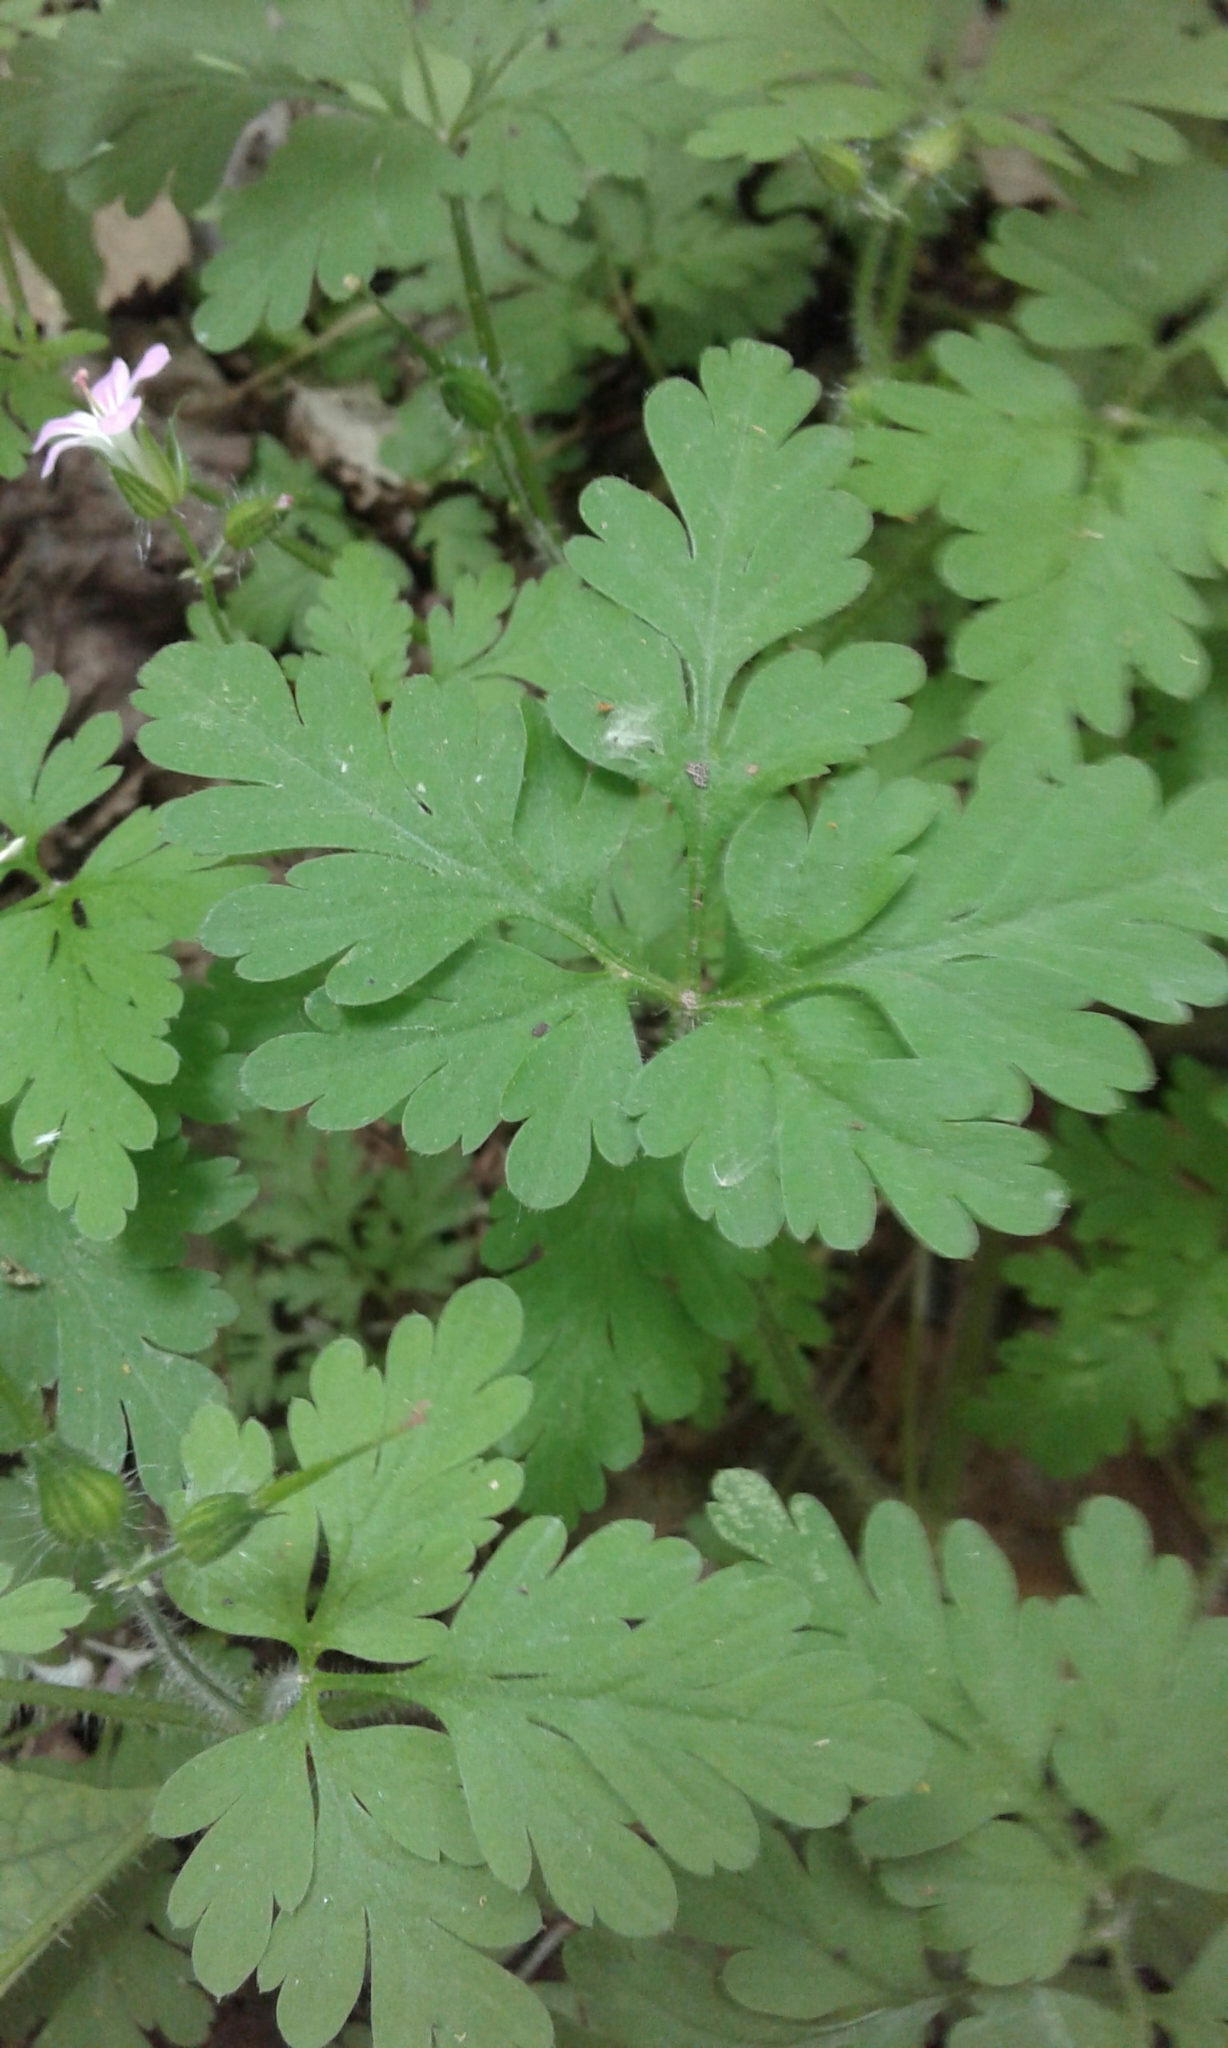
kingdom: Plantae
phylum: Tracheophyta
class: Magnoliopsida
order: Geraniales
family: Geraniaceae
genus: Geranium
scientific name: Geranium robertianum
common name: Herb-robert
